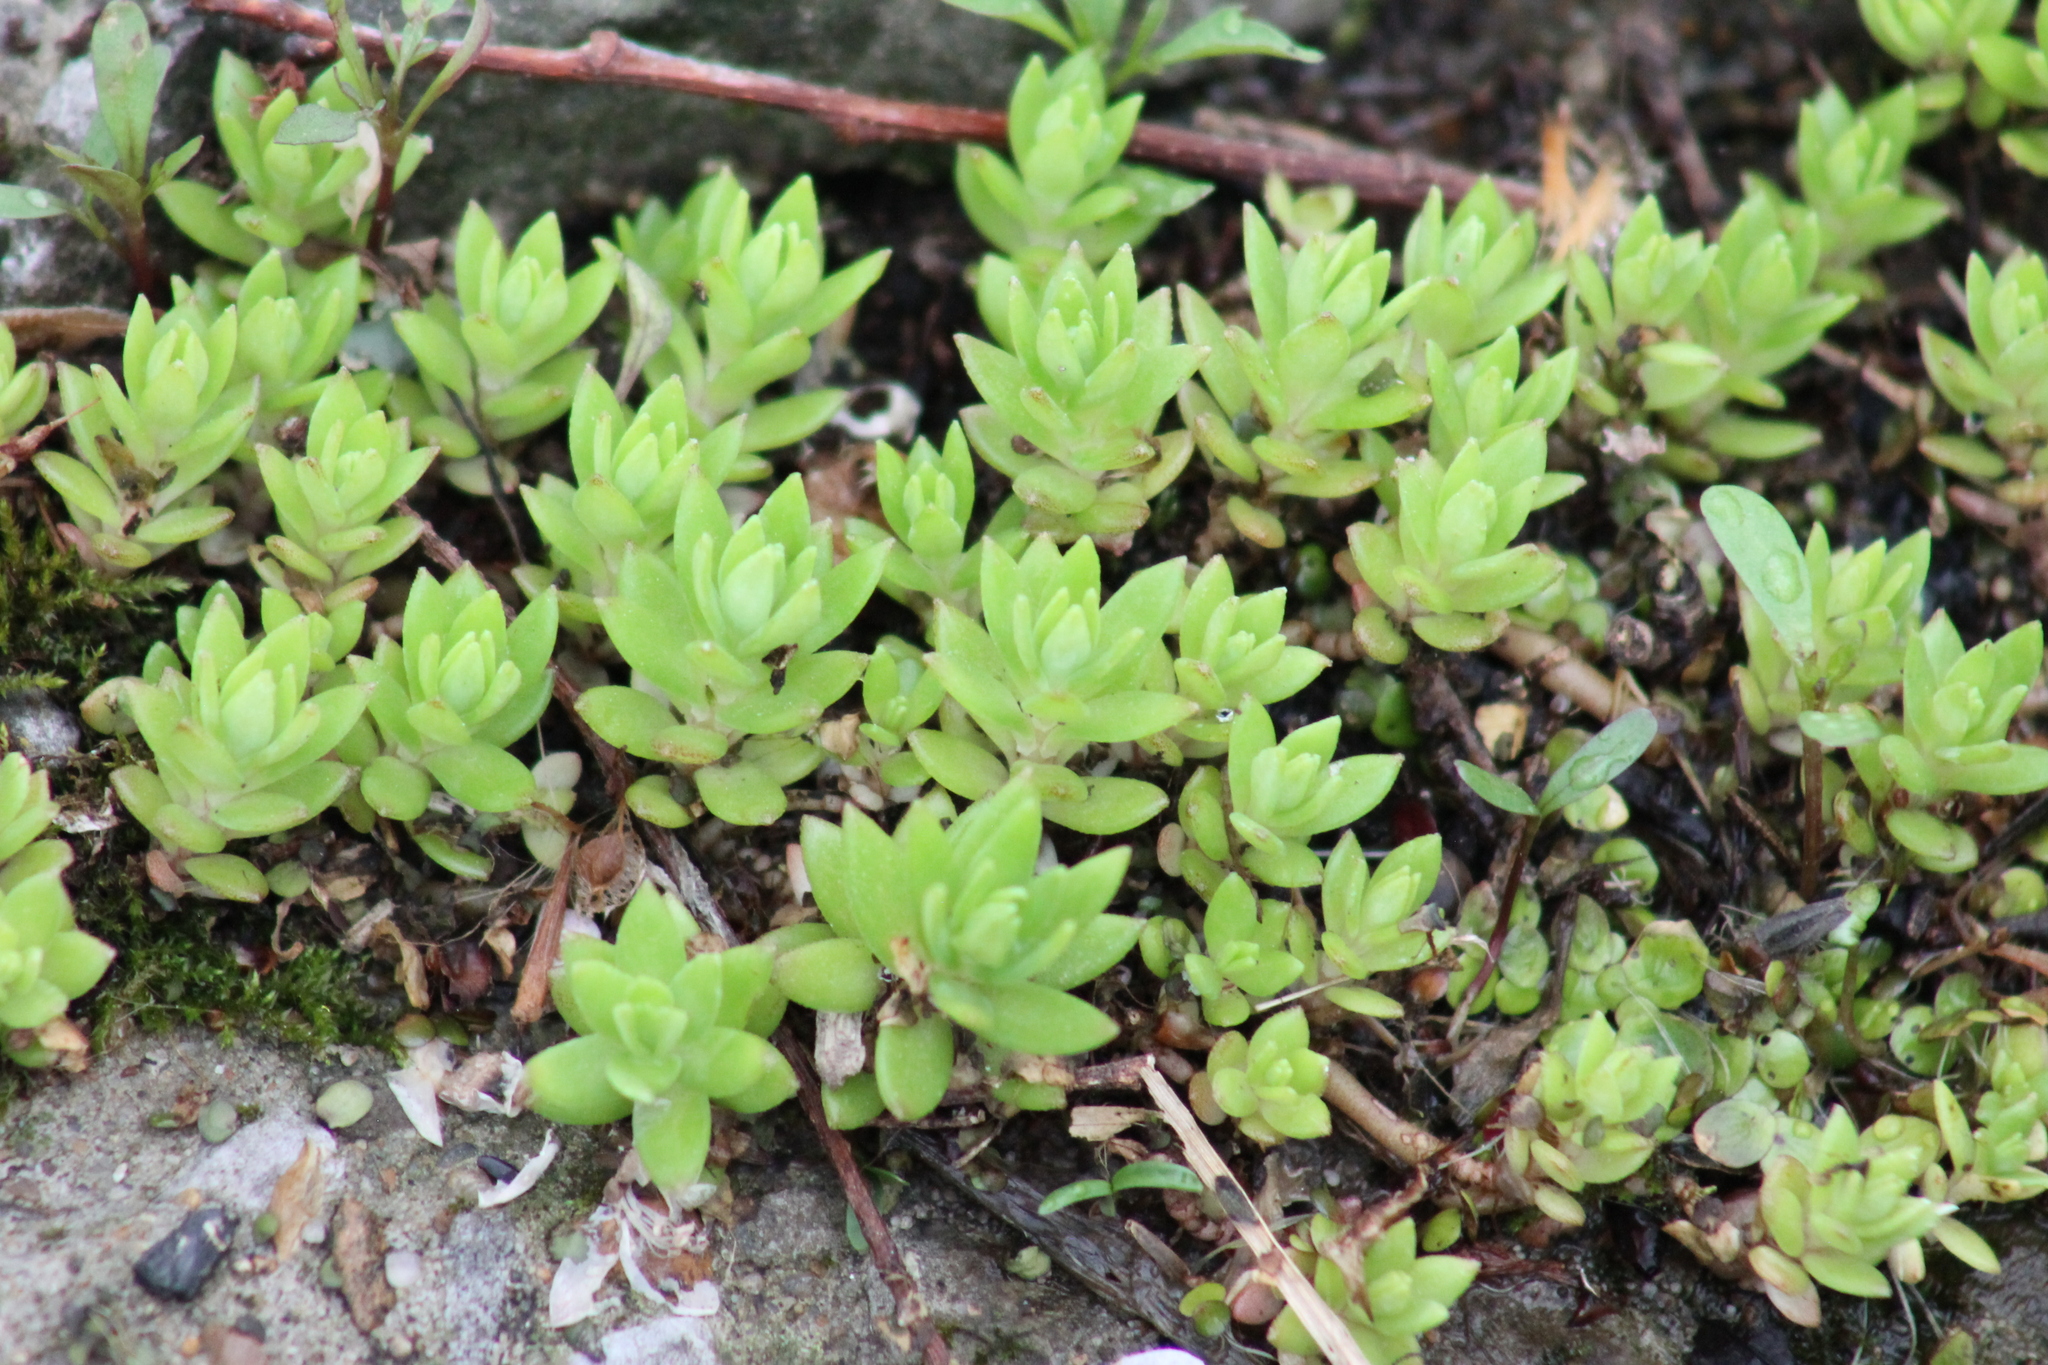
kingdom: Plantae
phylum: Tracheophyta
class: Magnoliopsida
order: Saxifragales
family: Crassulaceae
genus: Sedum
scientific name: Sedum sarmentosum
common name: Stringy stonecrop
